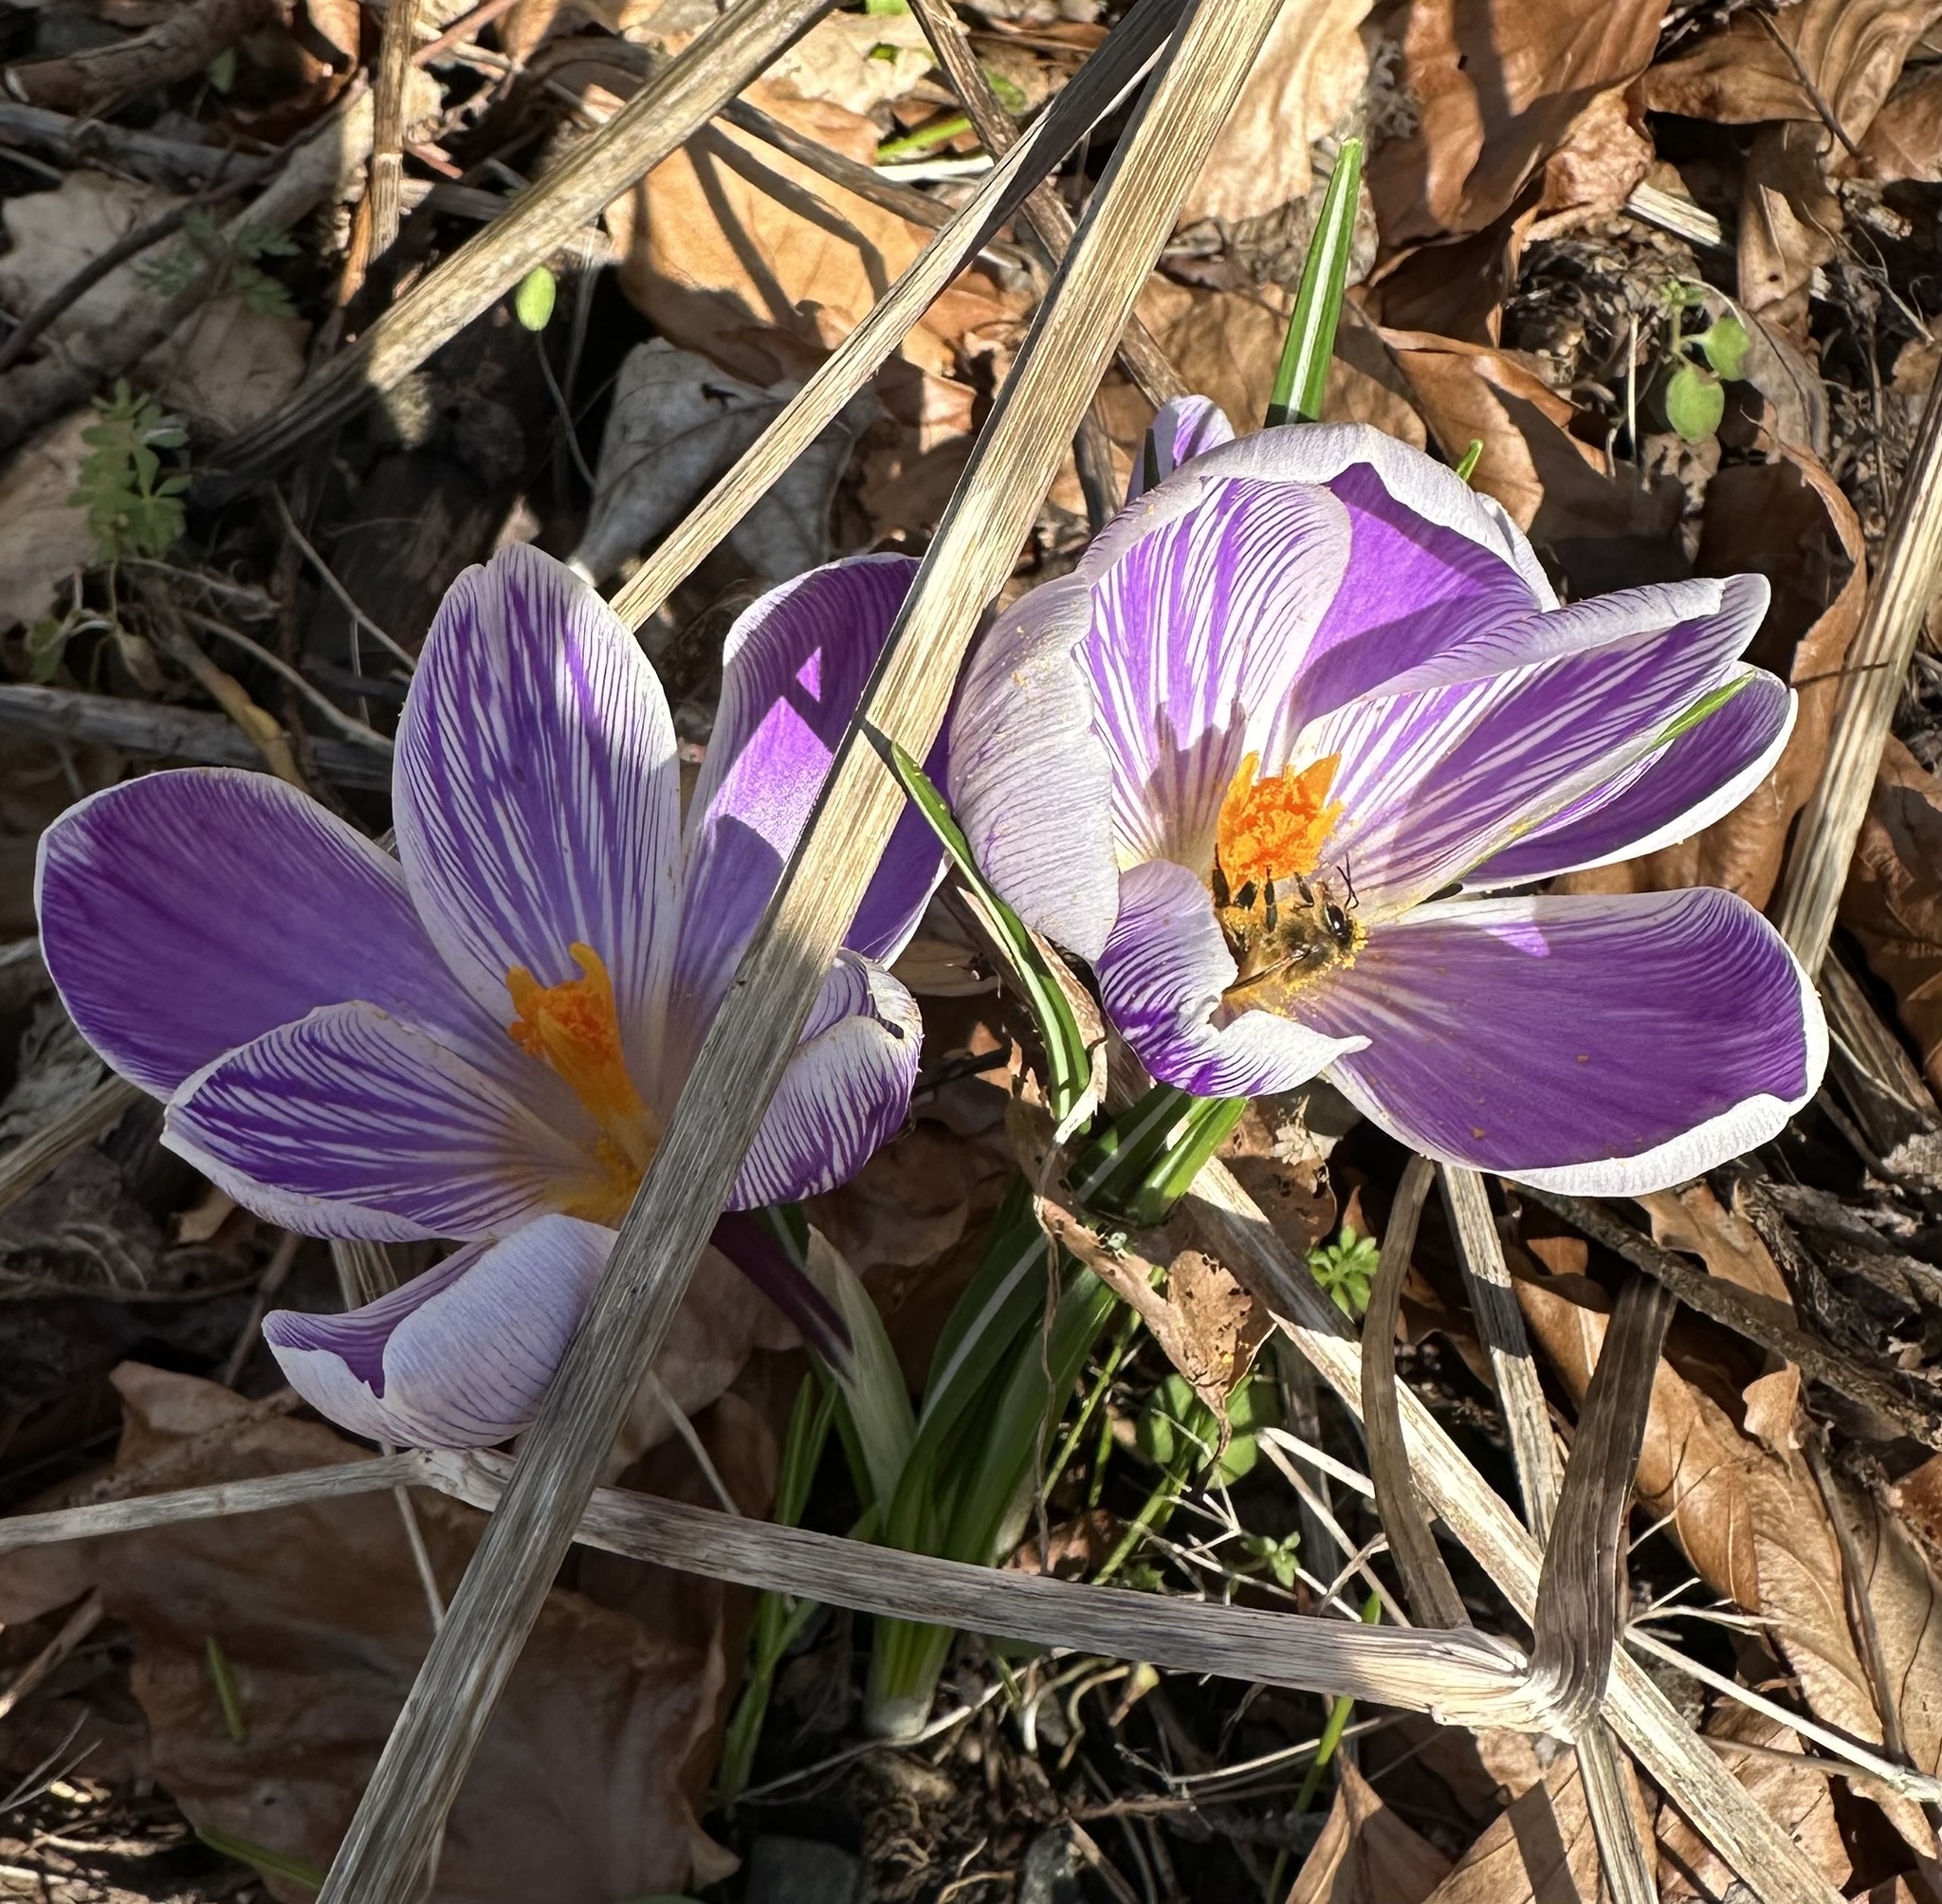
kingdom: Animalia
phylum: Arthropoda
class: Insecta
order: Hymenoptera
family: Apidae
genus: Apis
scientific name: Apis mellifera
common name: Honey bee
